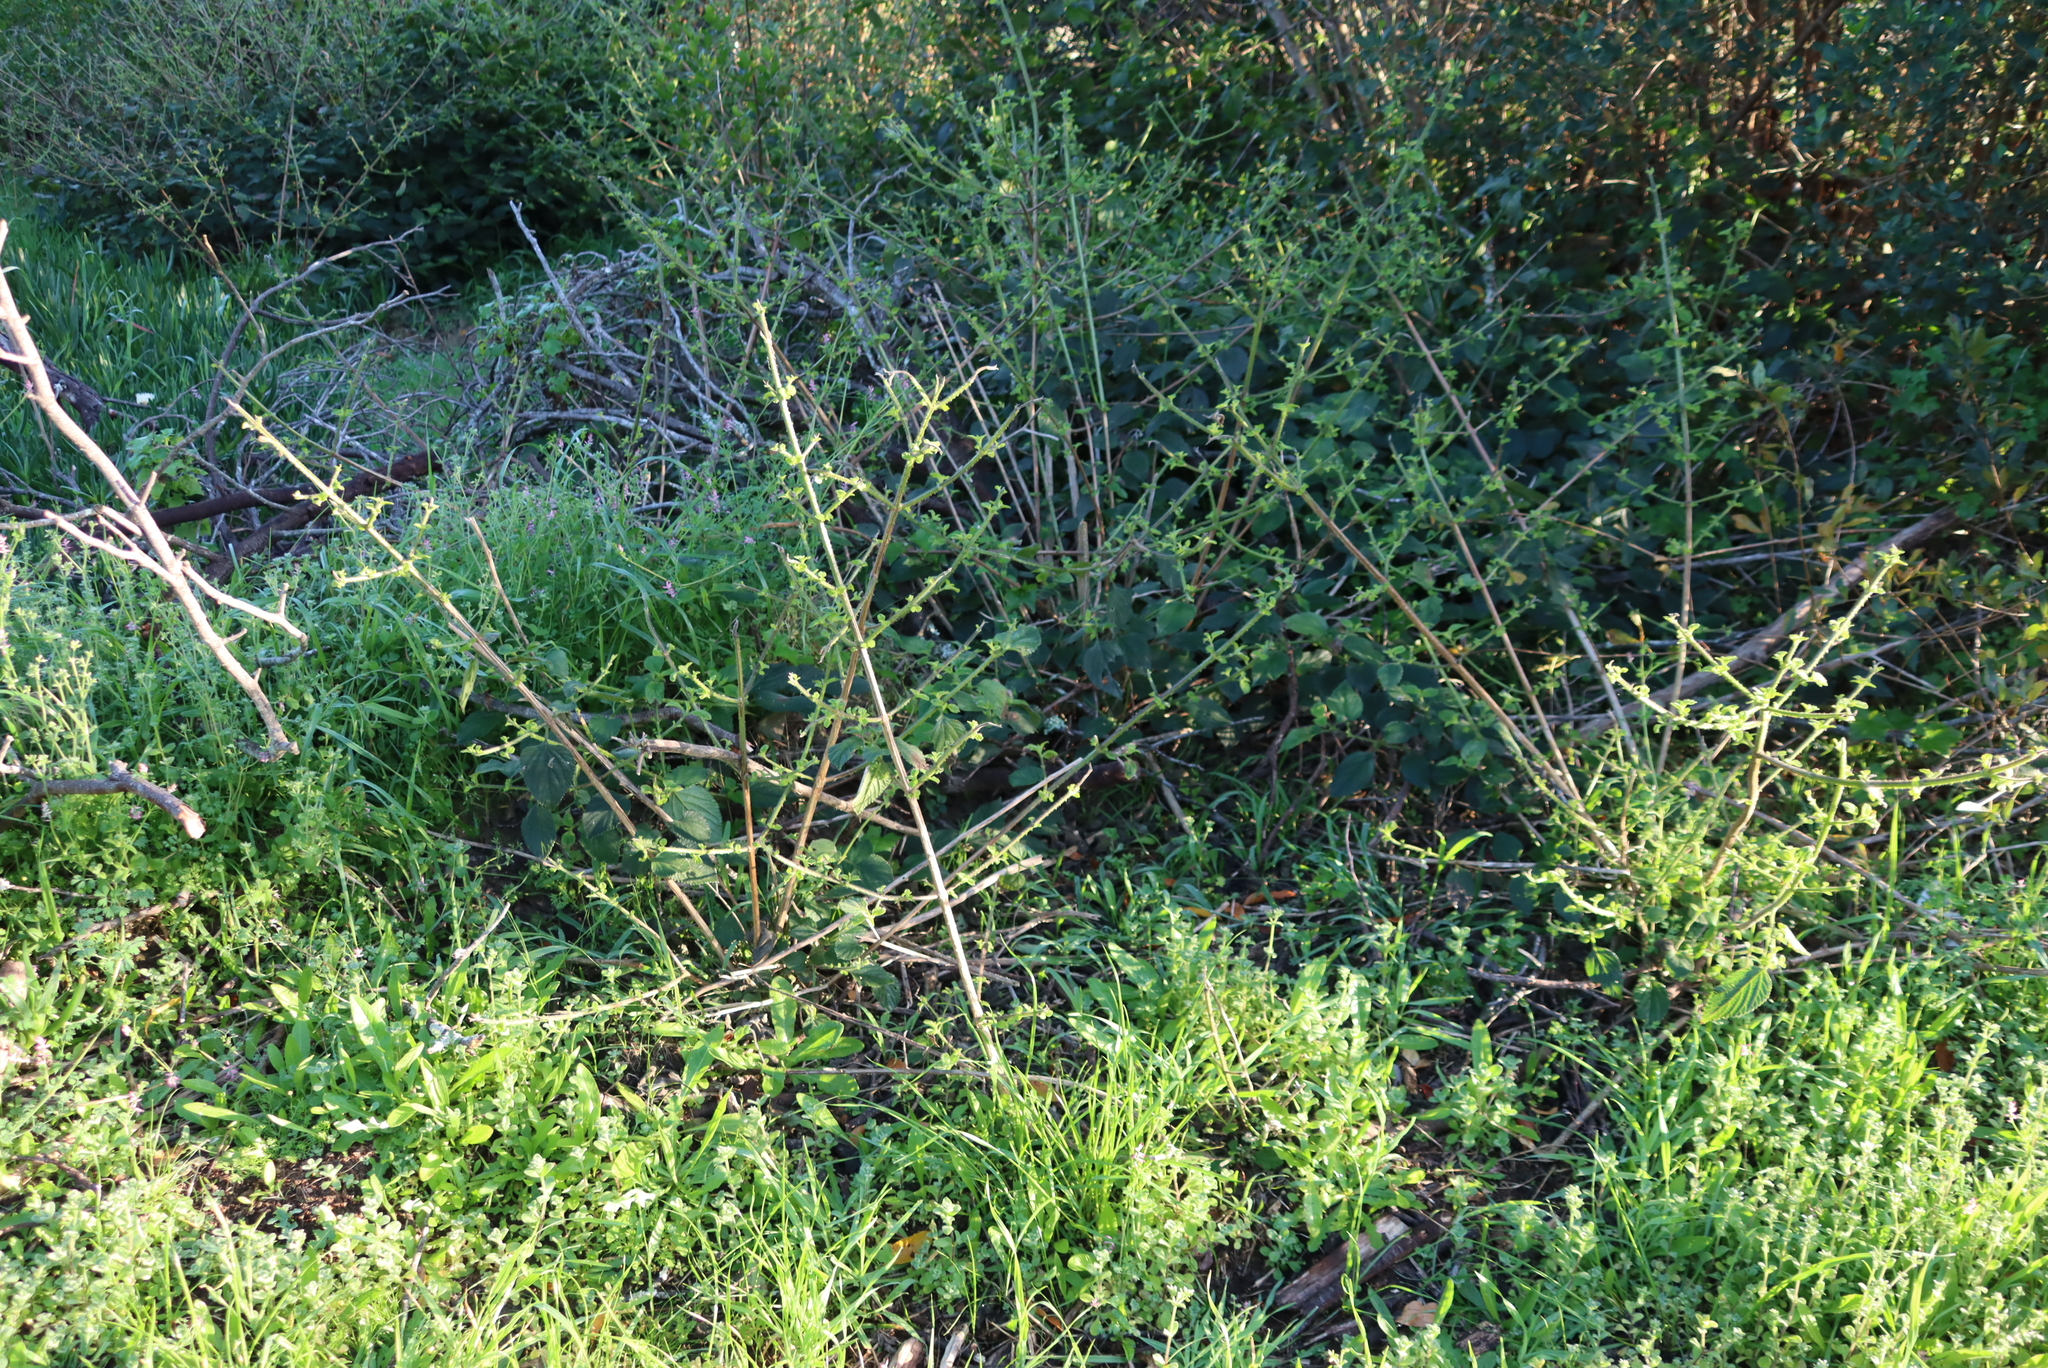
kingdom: Plantae
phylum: Tracheophyta
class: Magnoliopsida
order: Lamiales
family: Verbenaceae
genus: Lantana
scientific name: Lantana camara
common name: Lantana
